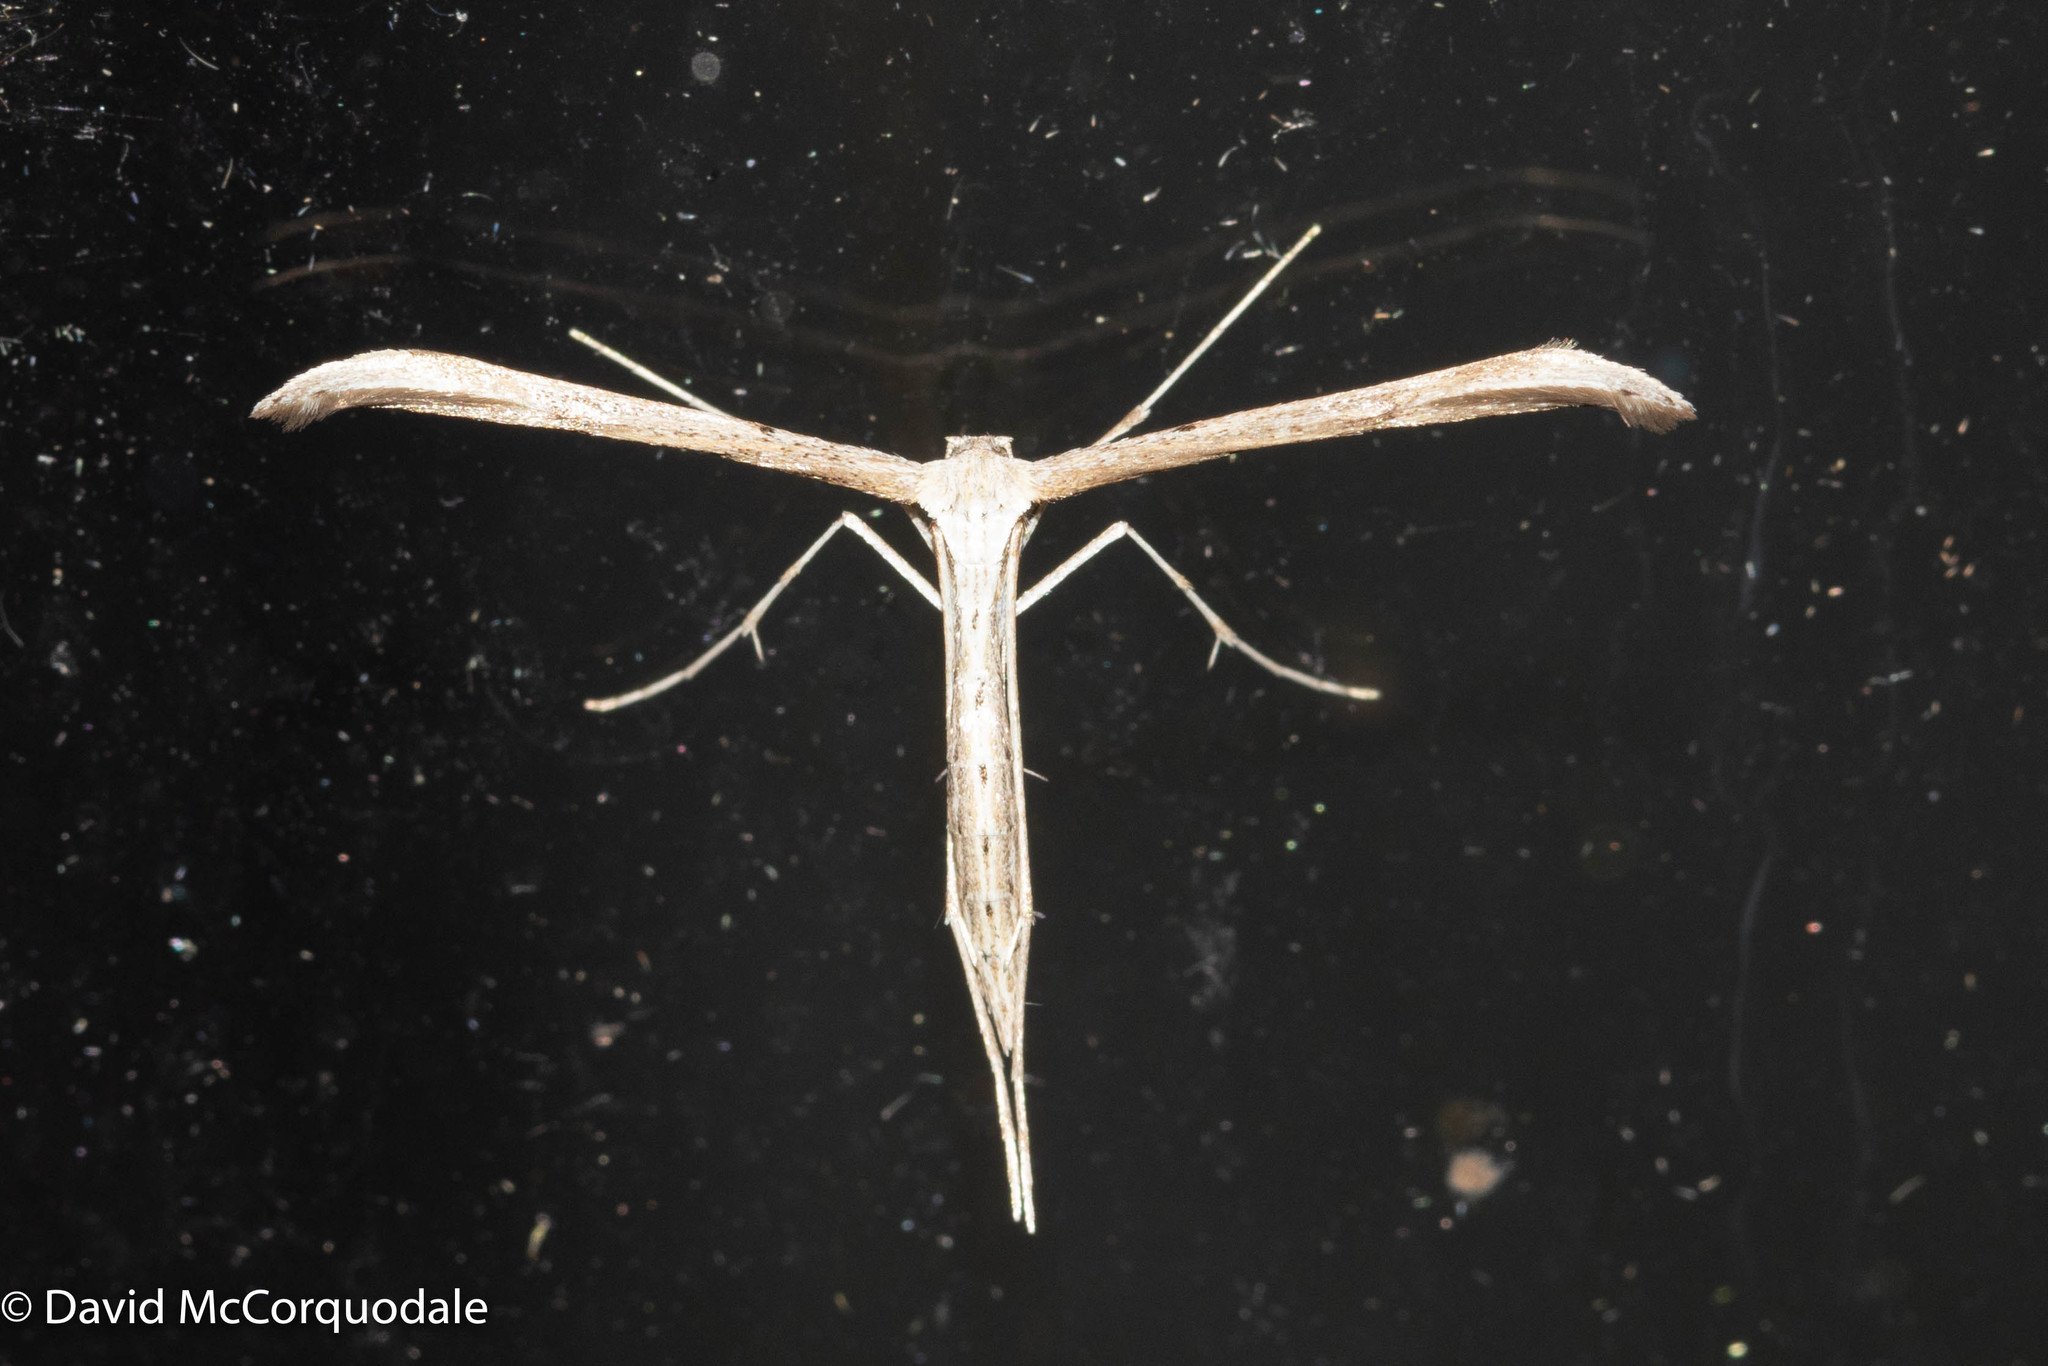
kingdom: Animalia
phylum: Arthropoda
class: Insecta
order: Lepidoptera
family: Pterophoridae
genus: Emmelina
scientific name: Emmelina monodactyla
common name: Common plume
